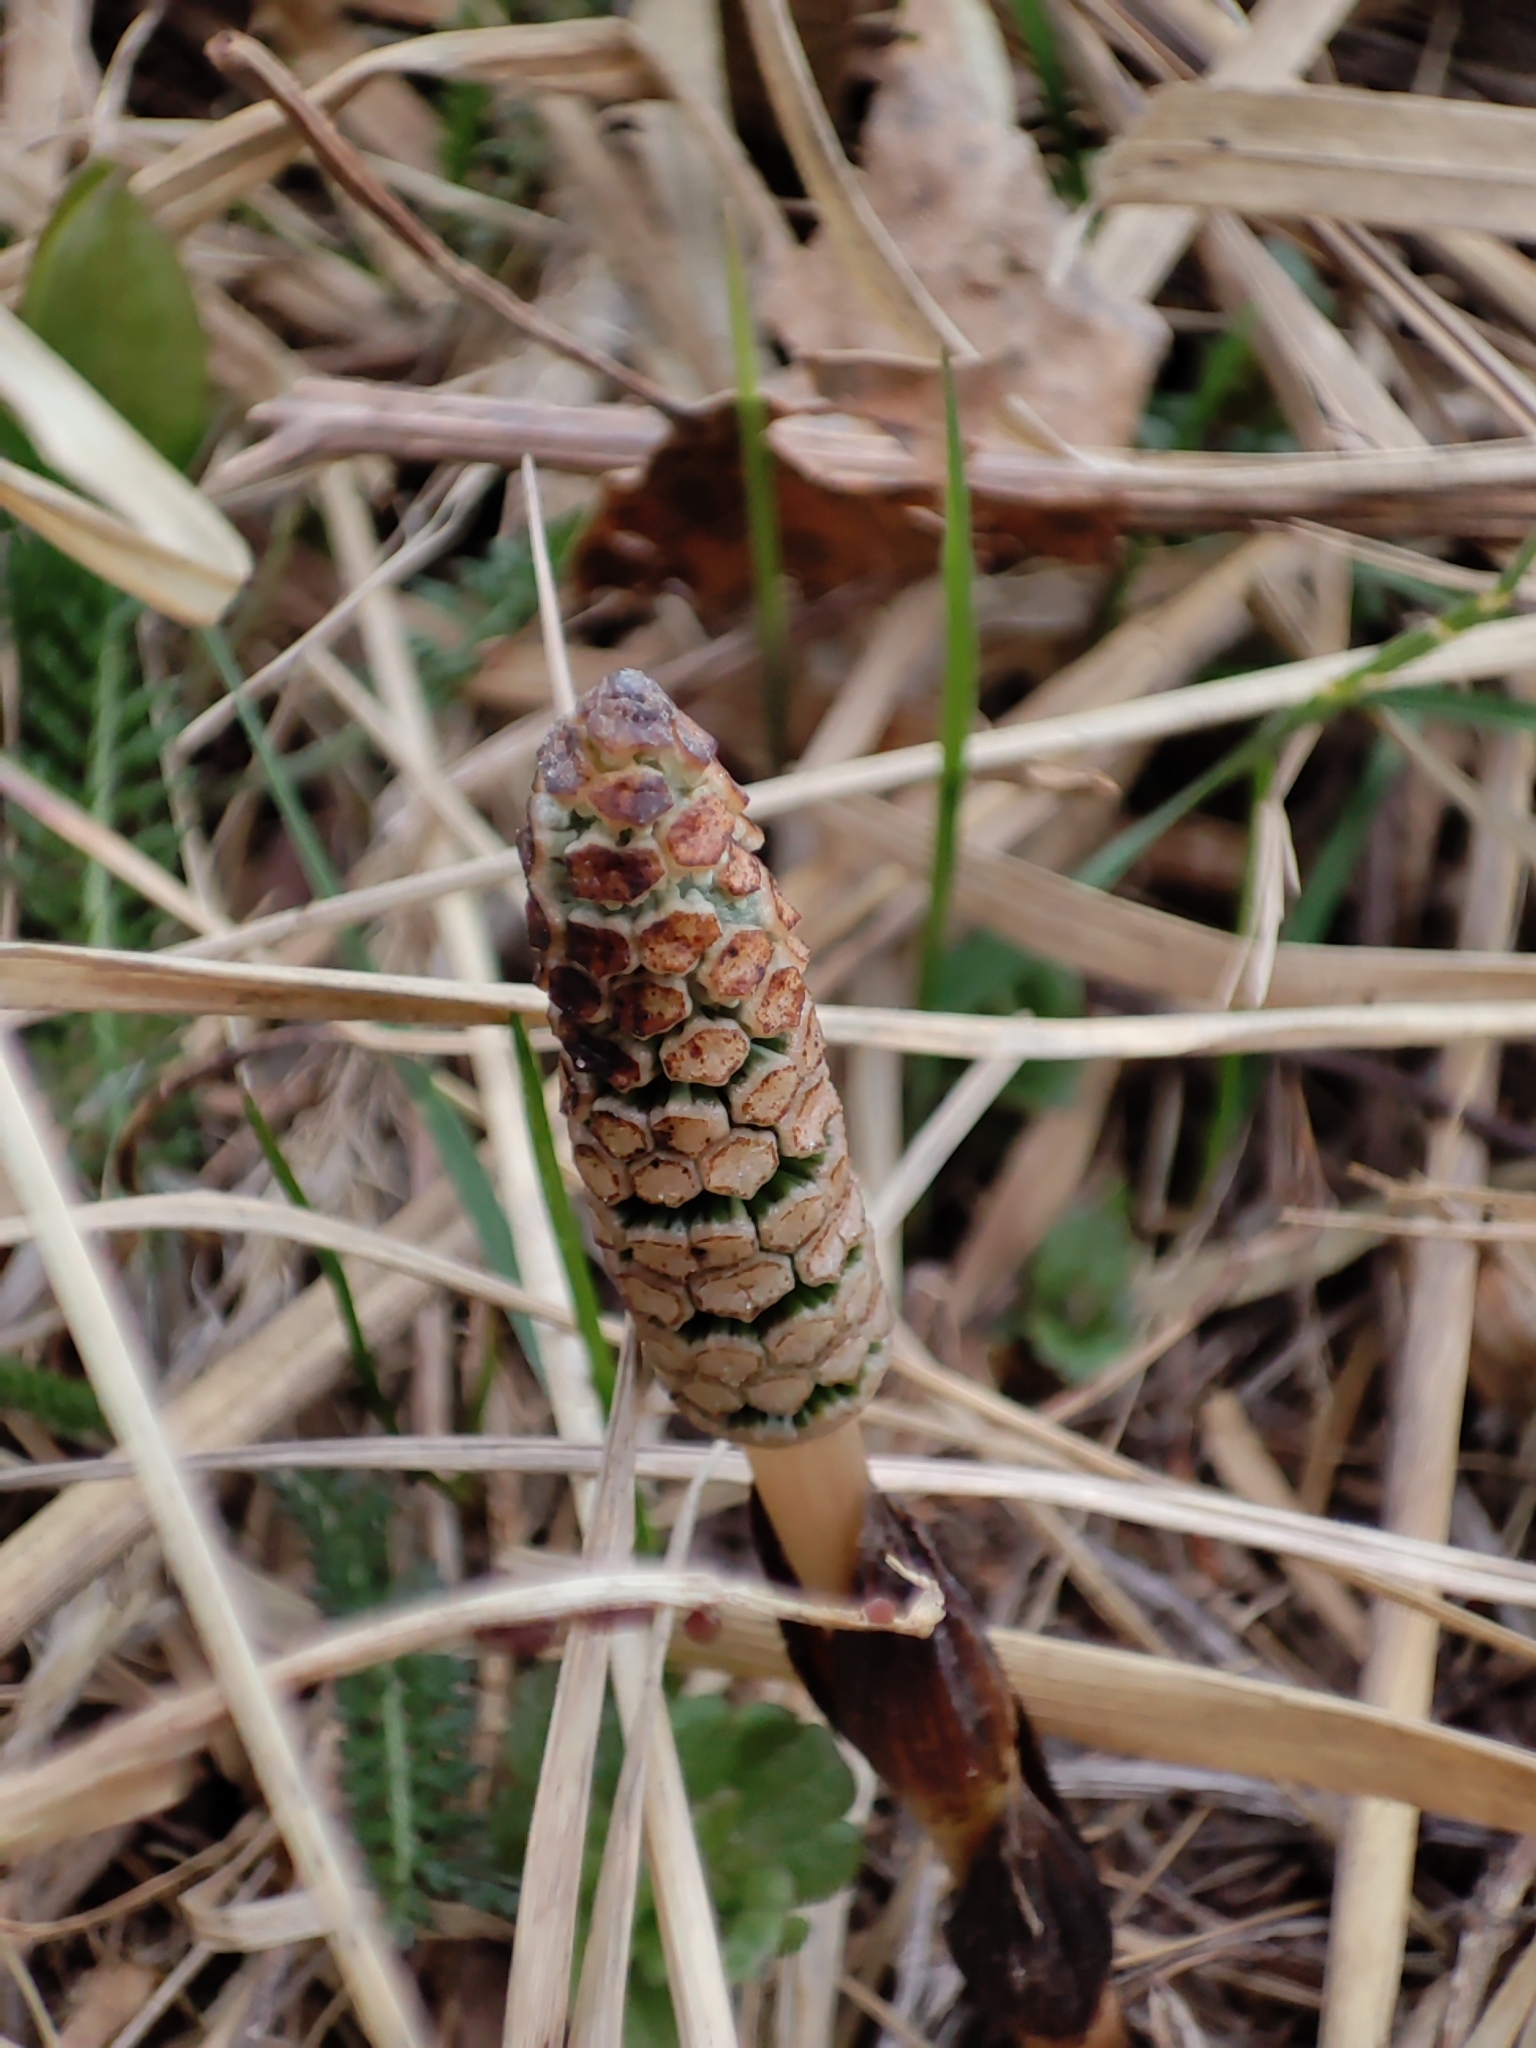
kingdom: Plantae
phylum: Tracheophyta
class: Polypodiopsida
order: Equisetales
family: Equisetaceae
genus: Equisetum
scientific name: Equisetum arvense
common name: Field horsetail
